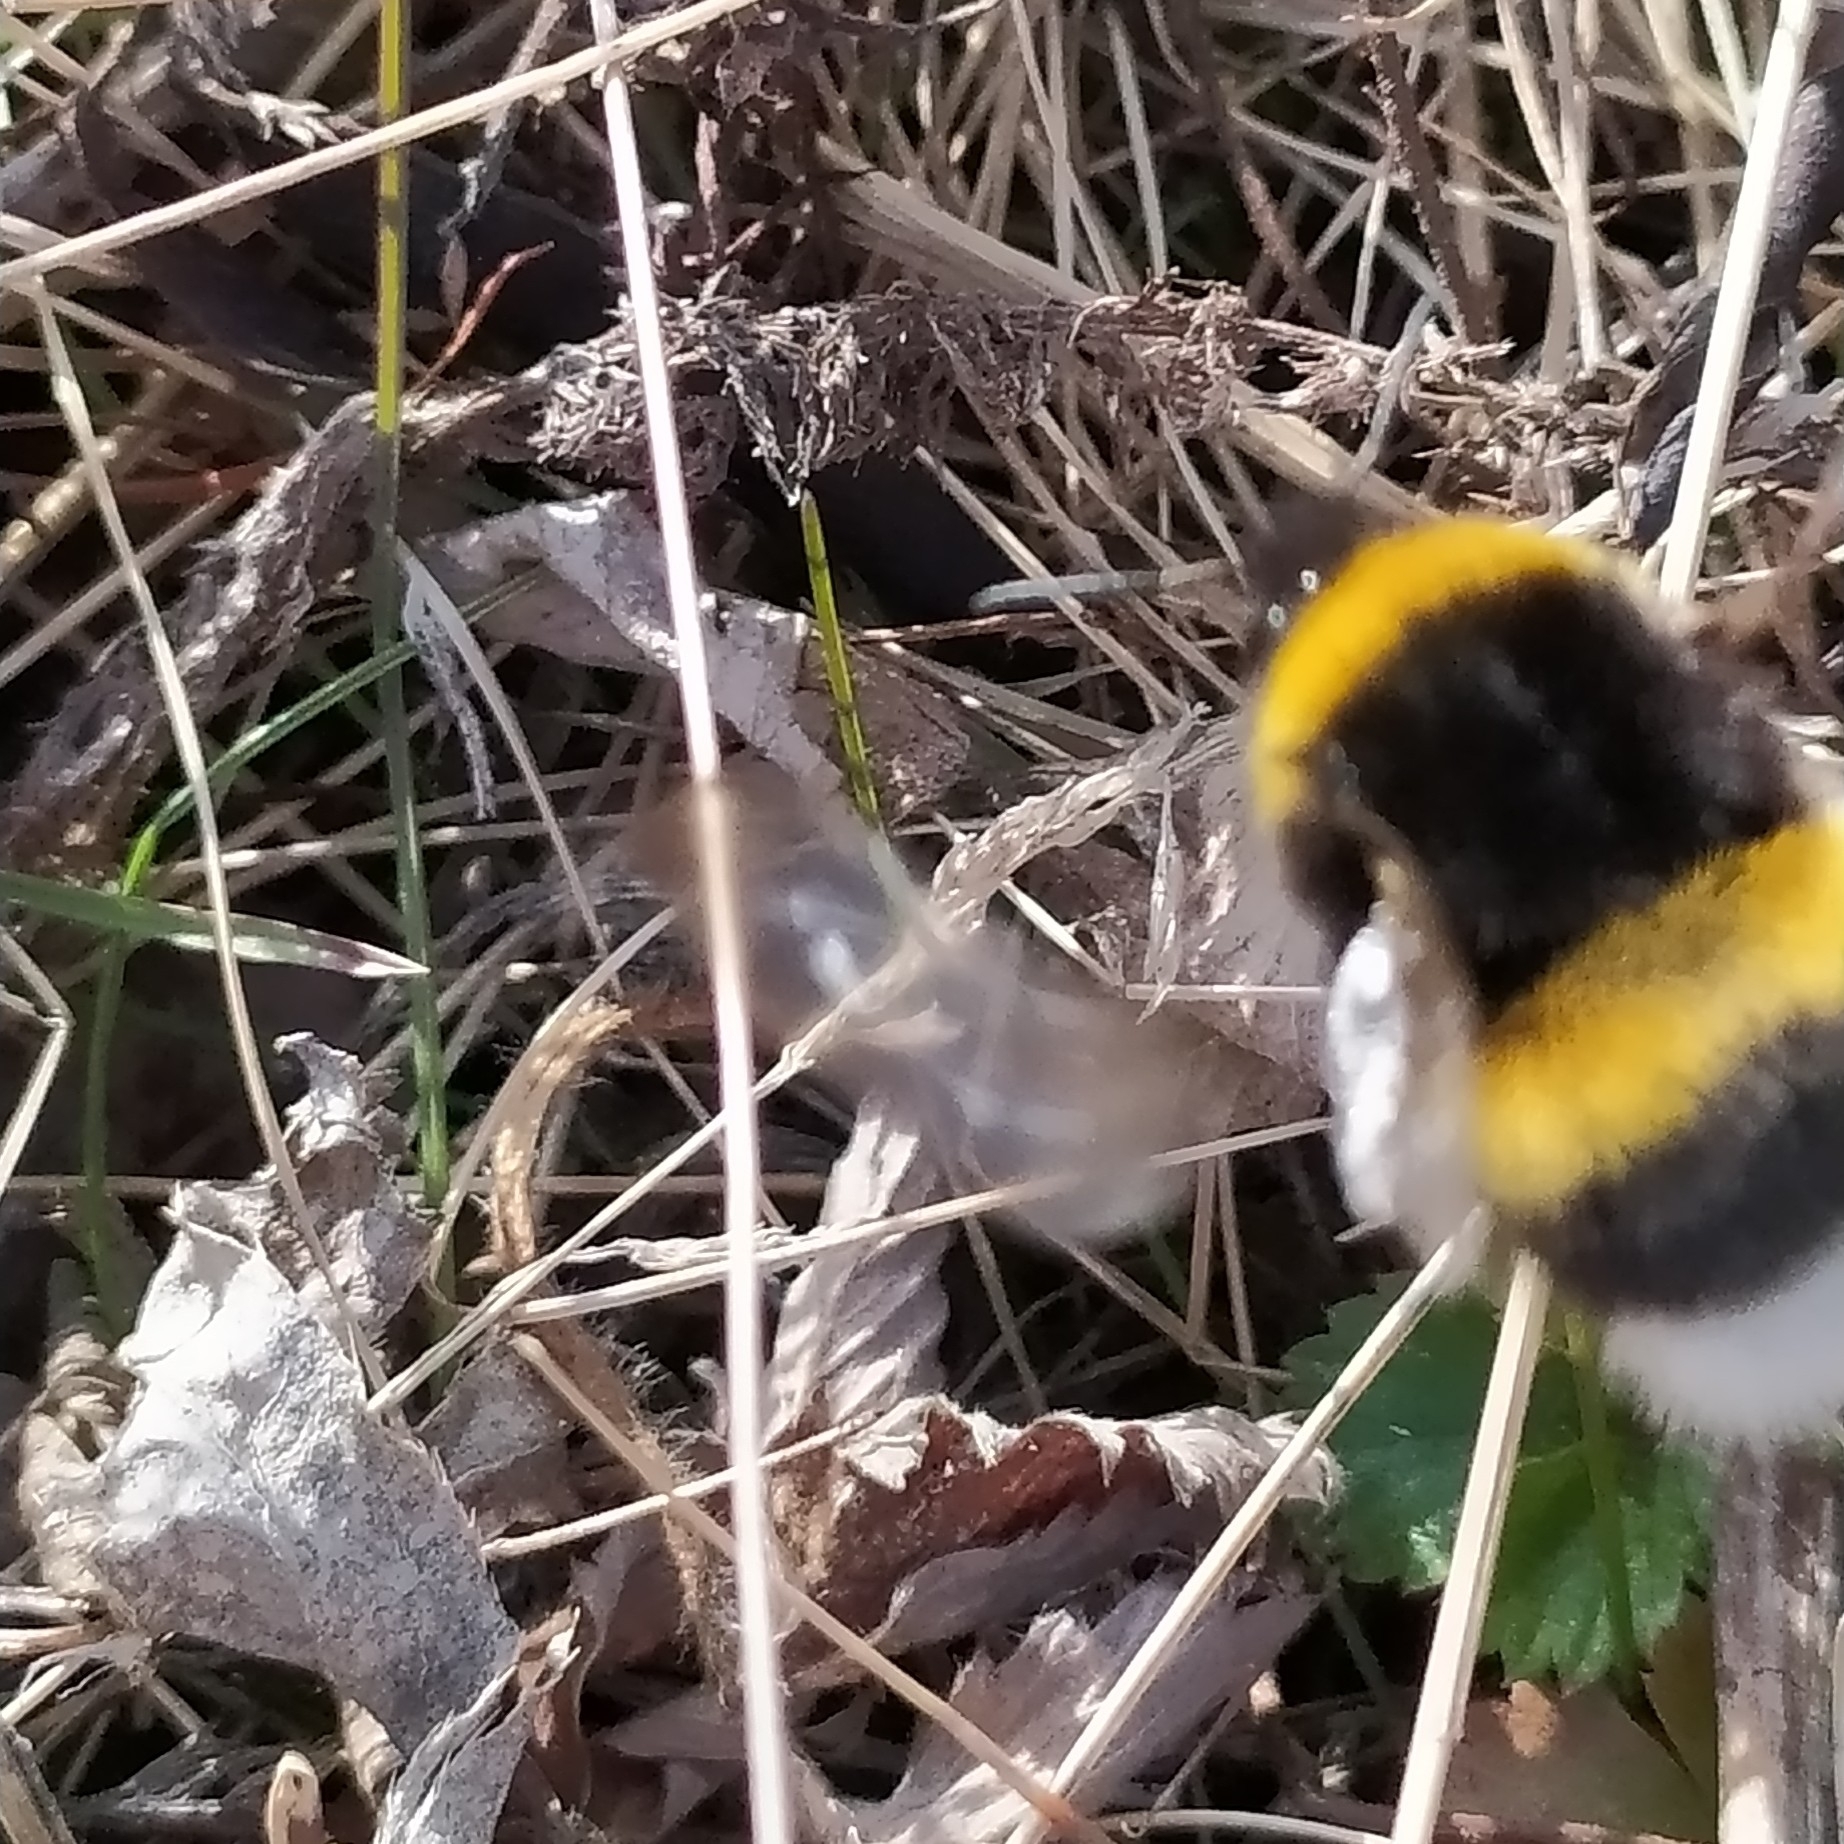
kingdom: Animalia
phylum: Arthropoda
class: Insecta
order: Hymenoptera
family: Apidae
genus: Bombus
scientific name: Bombus
